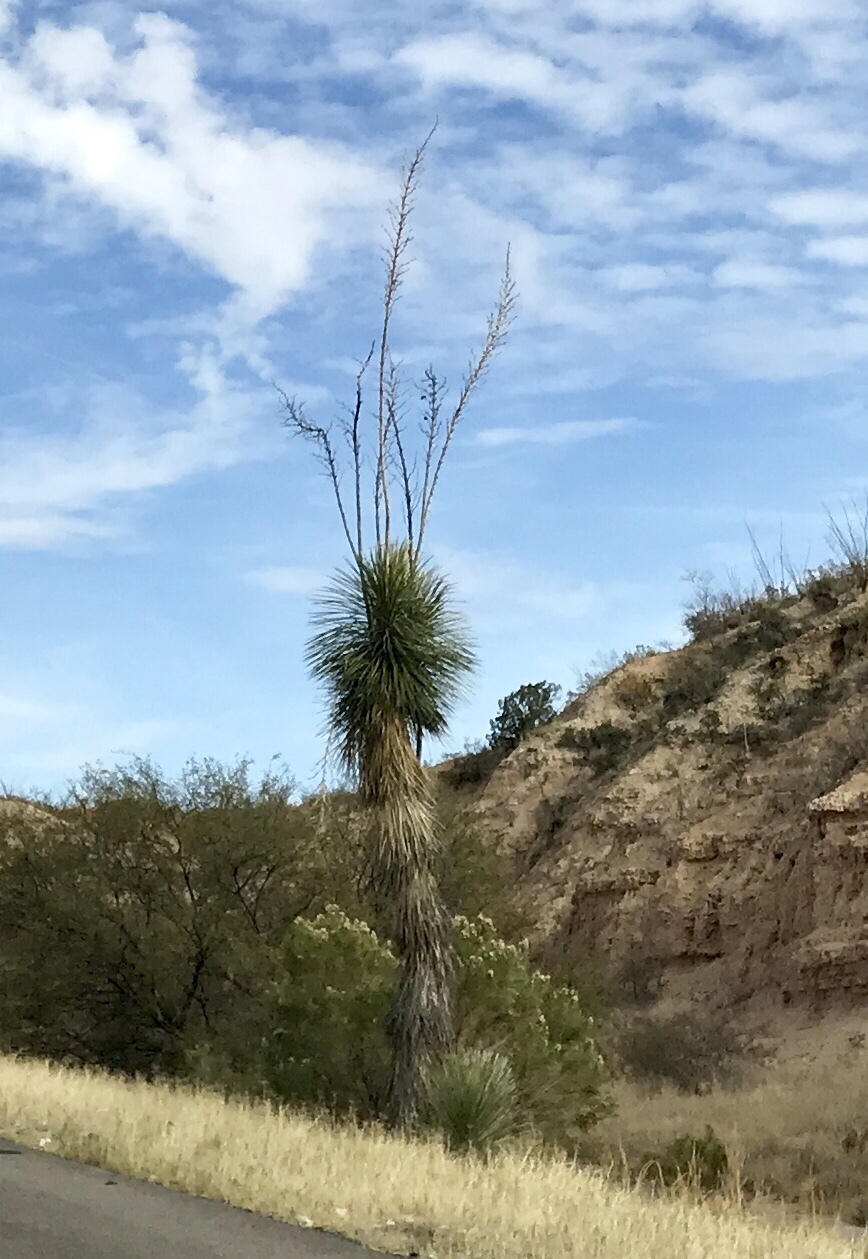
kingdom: Plantae
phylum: Tracheophyta
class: Liliopsida
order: Asparagales
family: Asparagaceae
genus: Yucca
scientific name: Yucca elata
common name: Palmella
